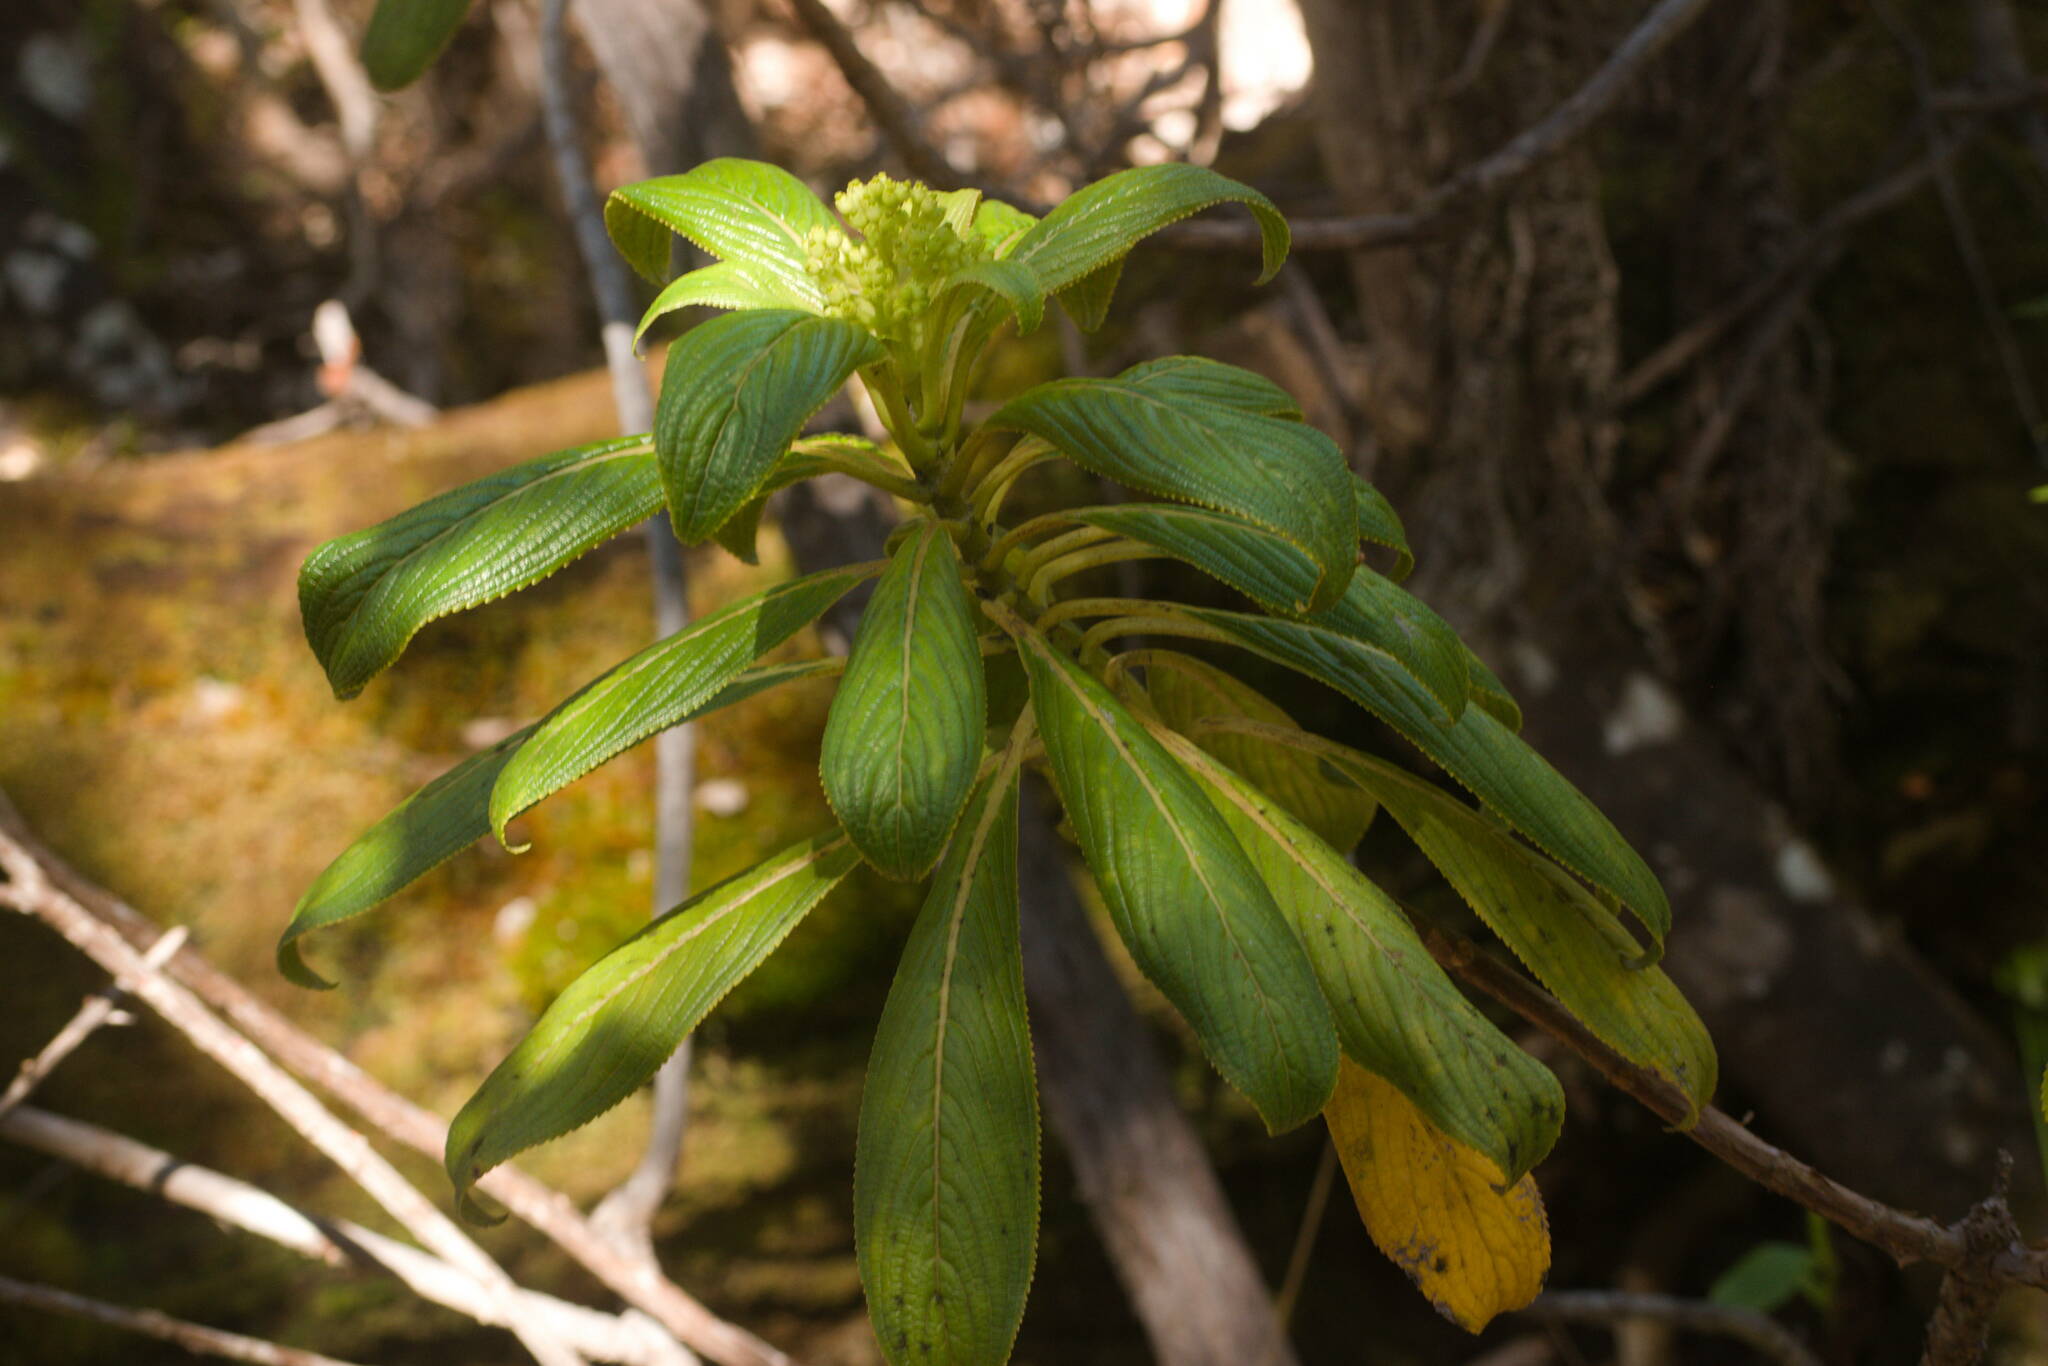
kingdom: Plantae
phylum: Tracheophyta
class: Magnoliopsida
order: Cornales
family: Hydrangeaceae
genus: Hydrangea
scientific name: Hydrangea arguta
